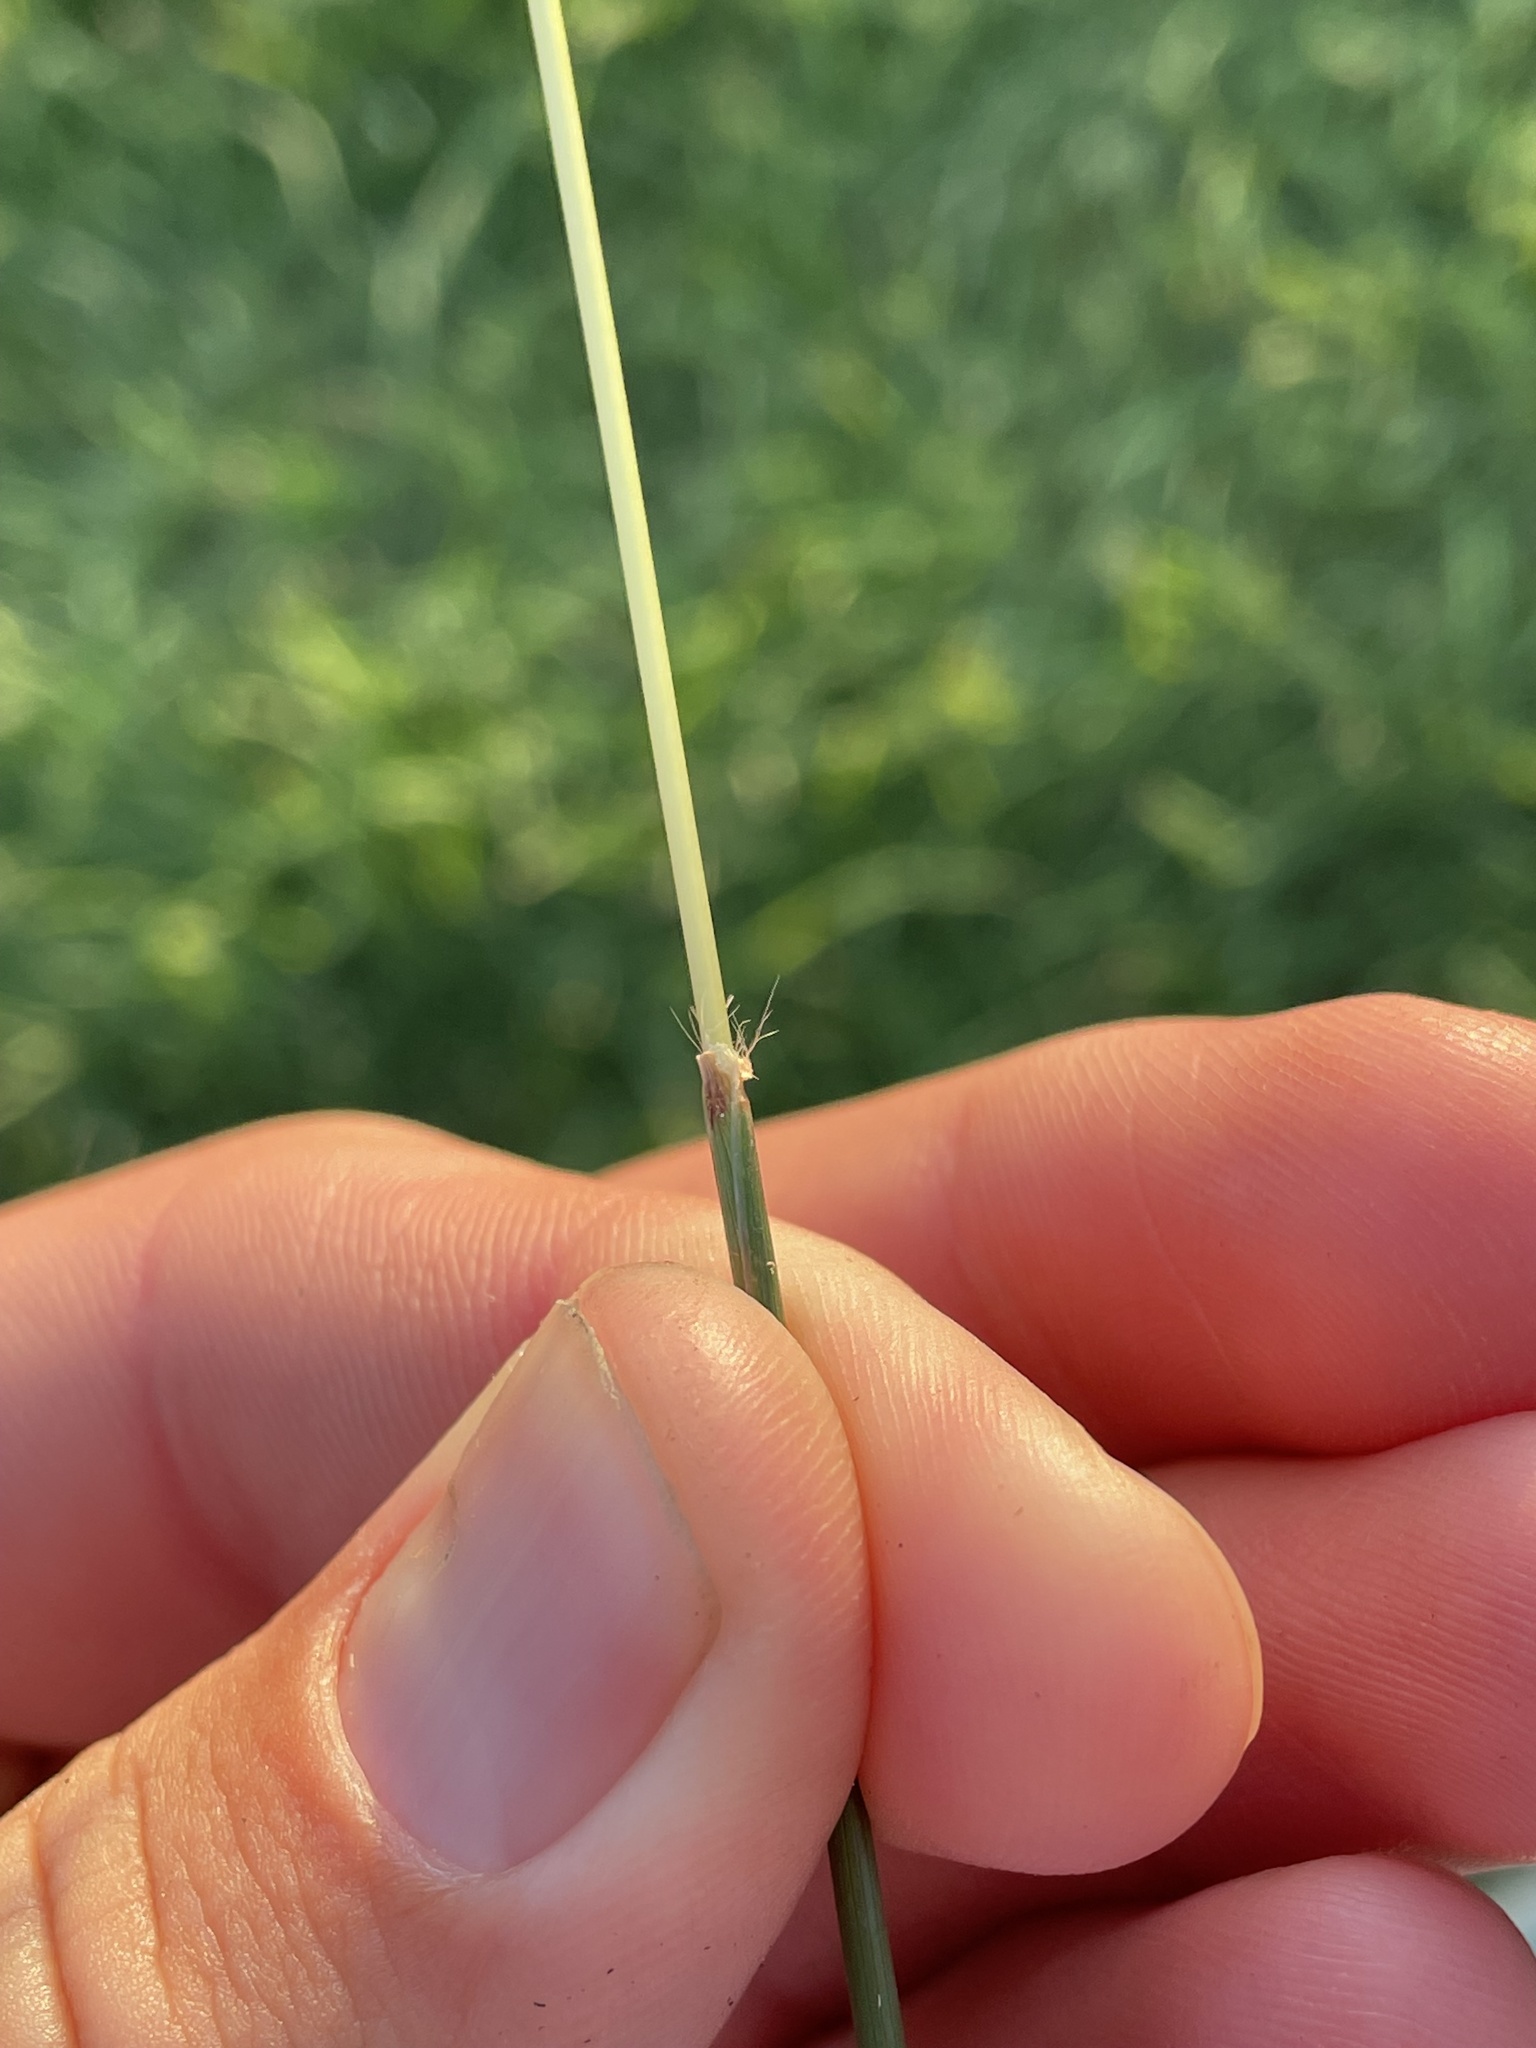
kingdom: Plantae
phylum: Tracheophyta
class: Liliopsida
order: Poales
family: Poaceae
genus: Bothriochloa
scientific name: Bothriochloa ischaemum
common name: Yellow bluestem
